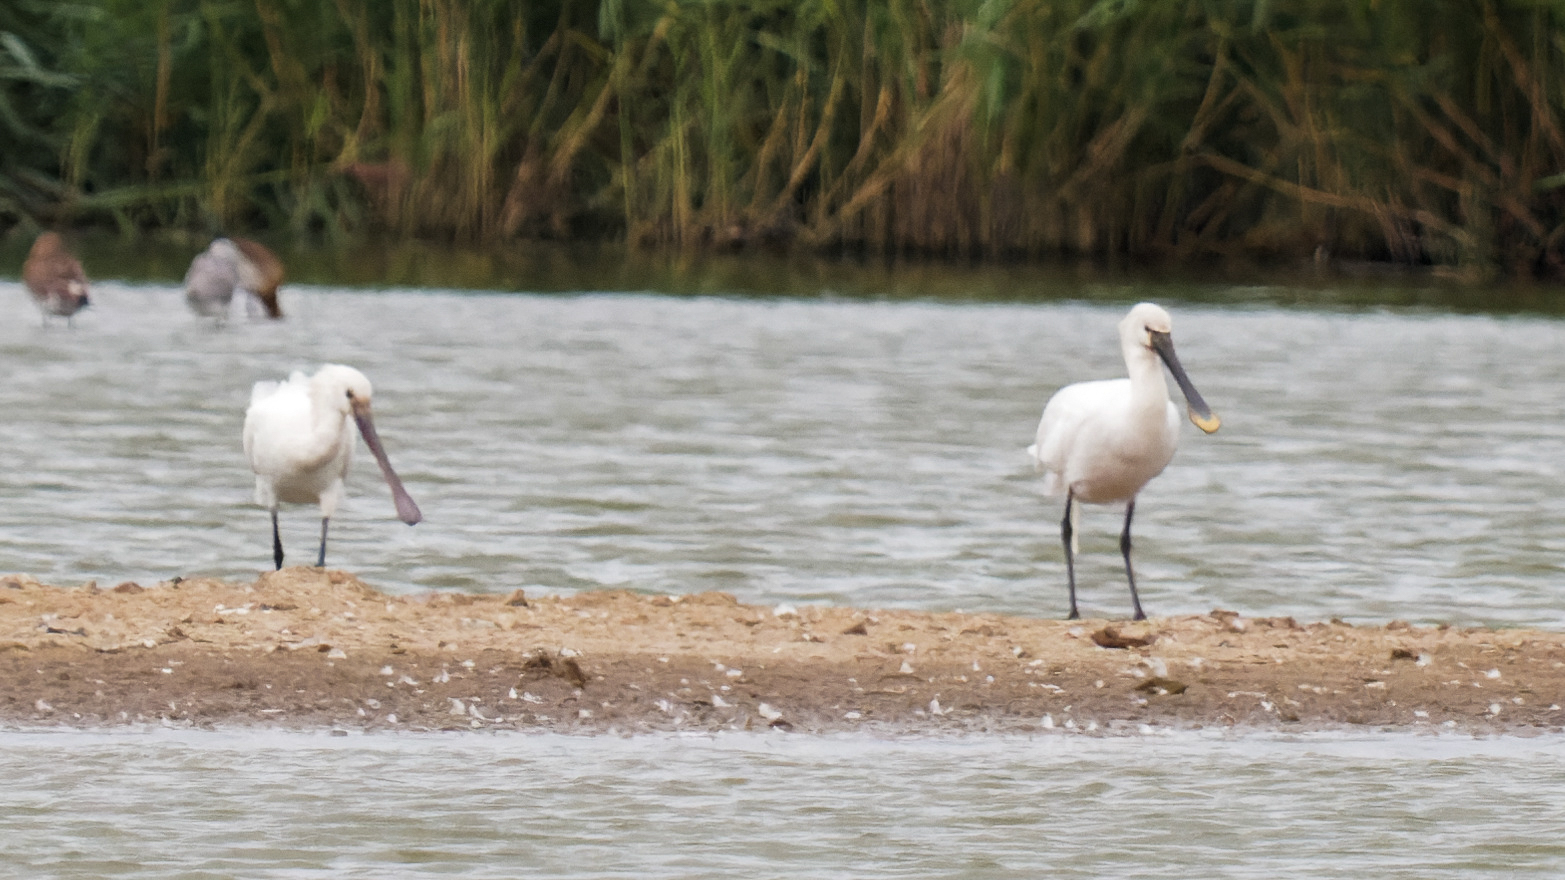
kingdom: Animalia
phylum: Chordata
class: Aves
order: Pelecaniformes
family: Threskiornithidae
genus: Platalea
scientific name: Platalea leucorodia
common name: Eurasian spoonbill
